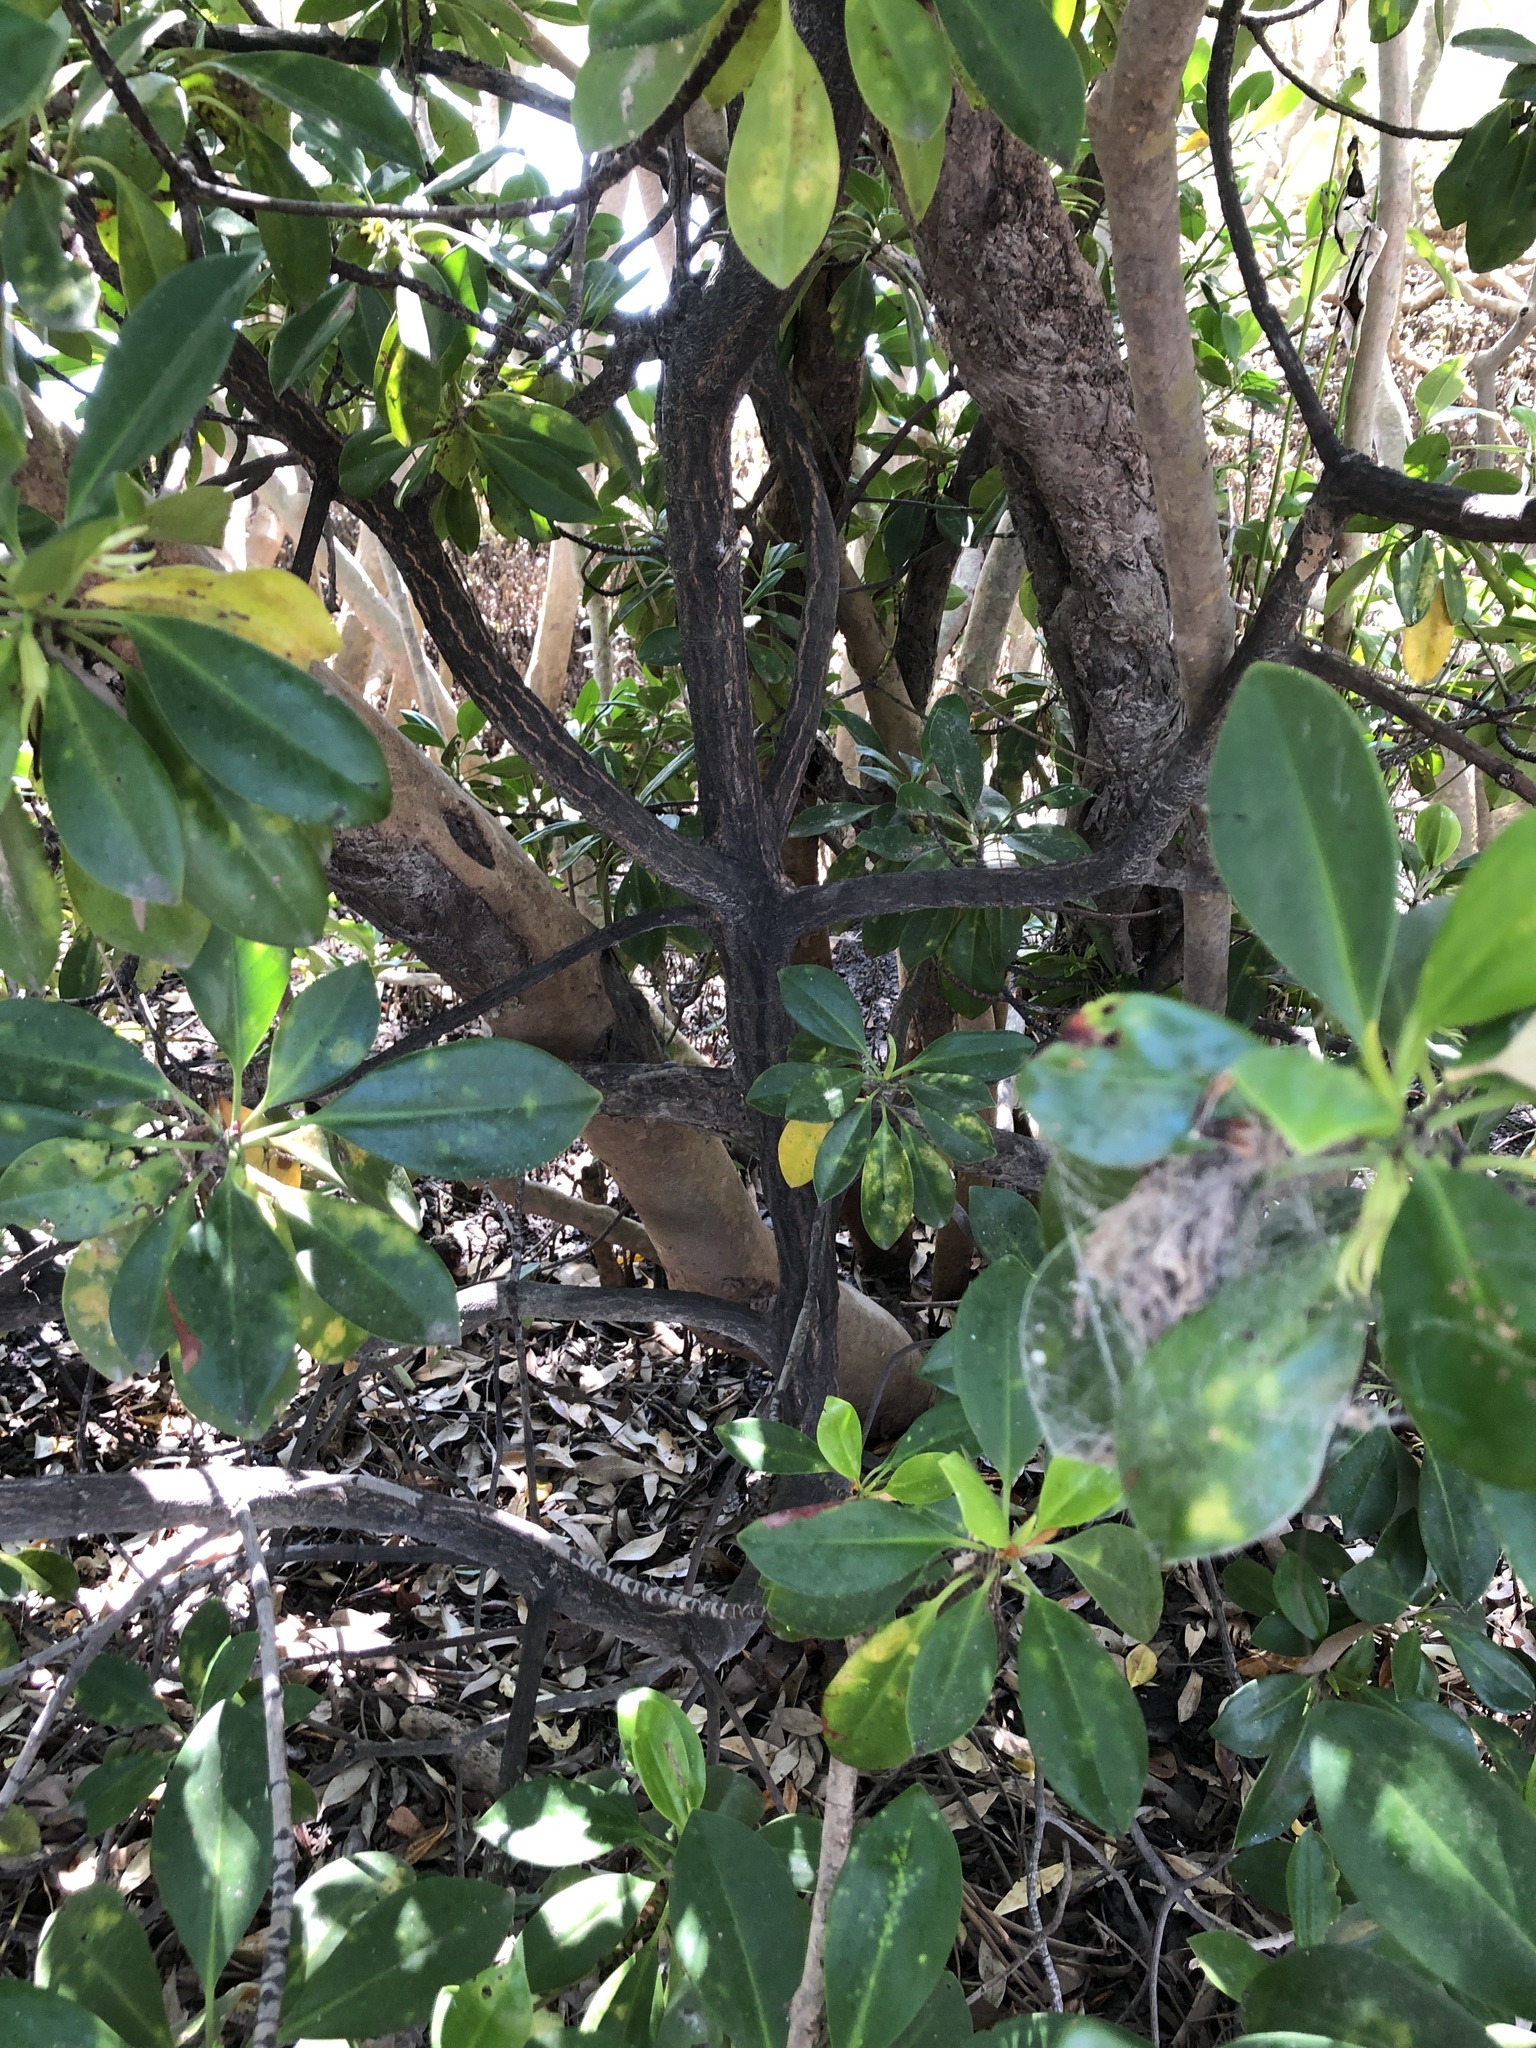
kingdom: Plantae
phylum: Tracheophyta
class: Magnoliopsida
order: Malpighiales
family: Rhizophoraceae
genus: Bruguiera
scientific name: Bruguiera exaristata
